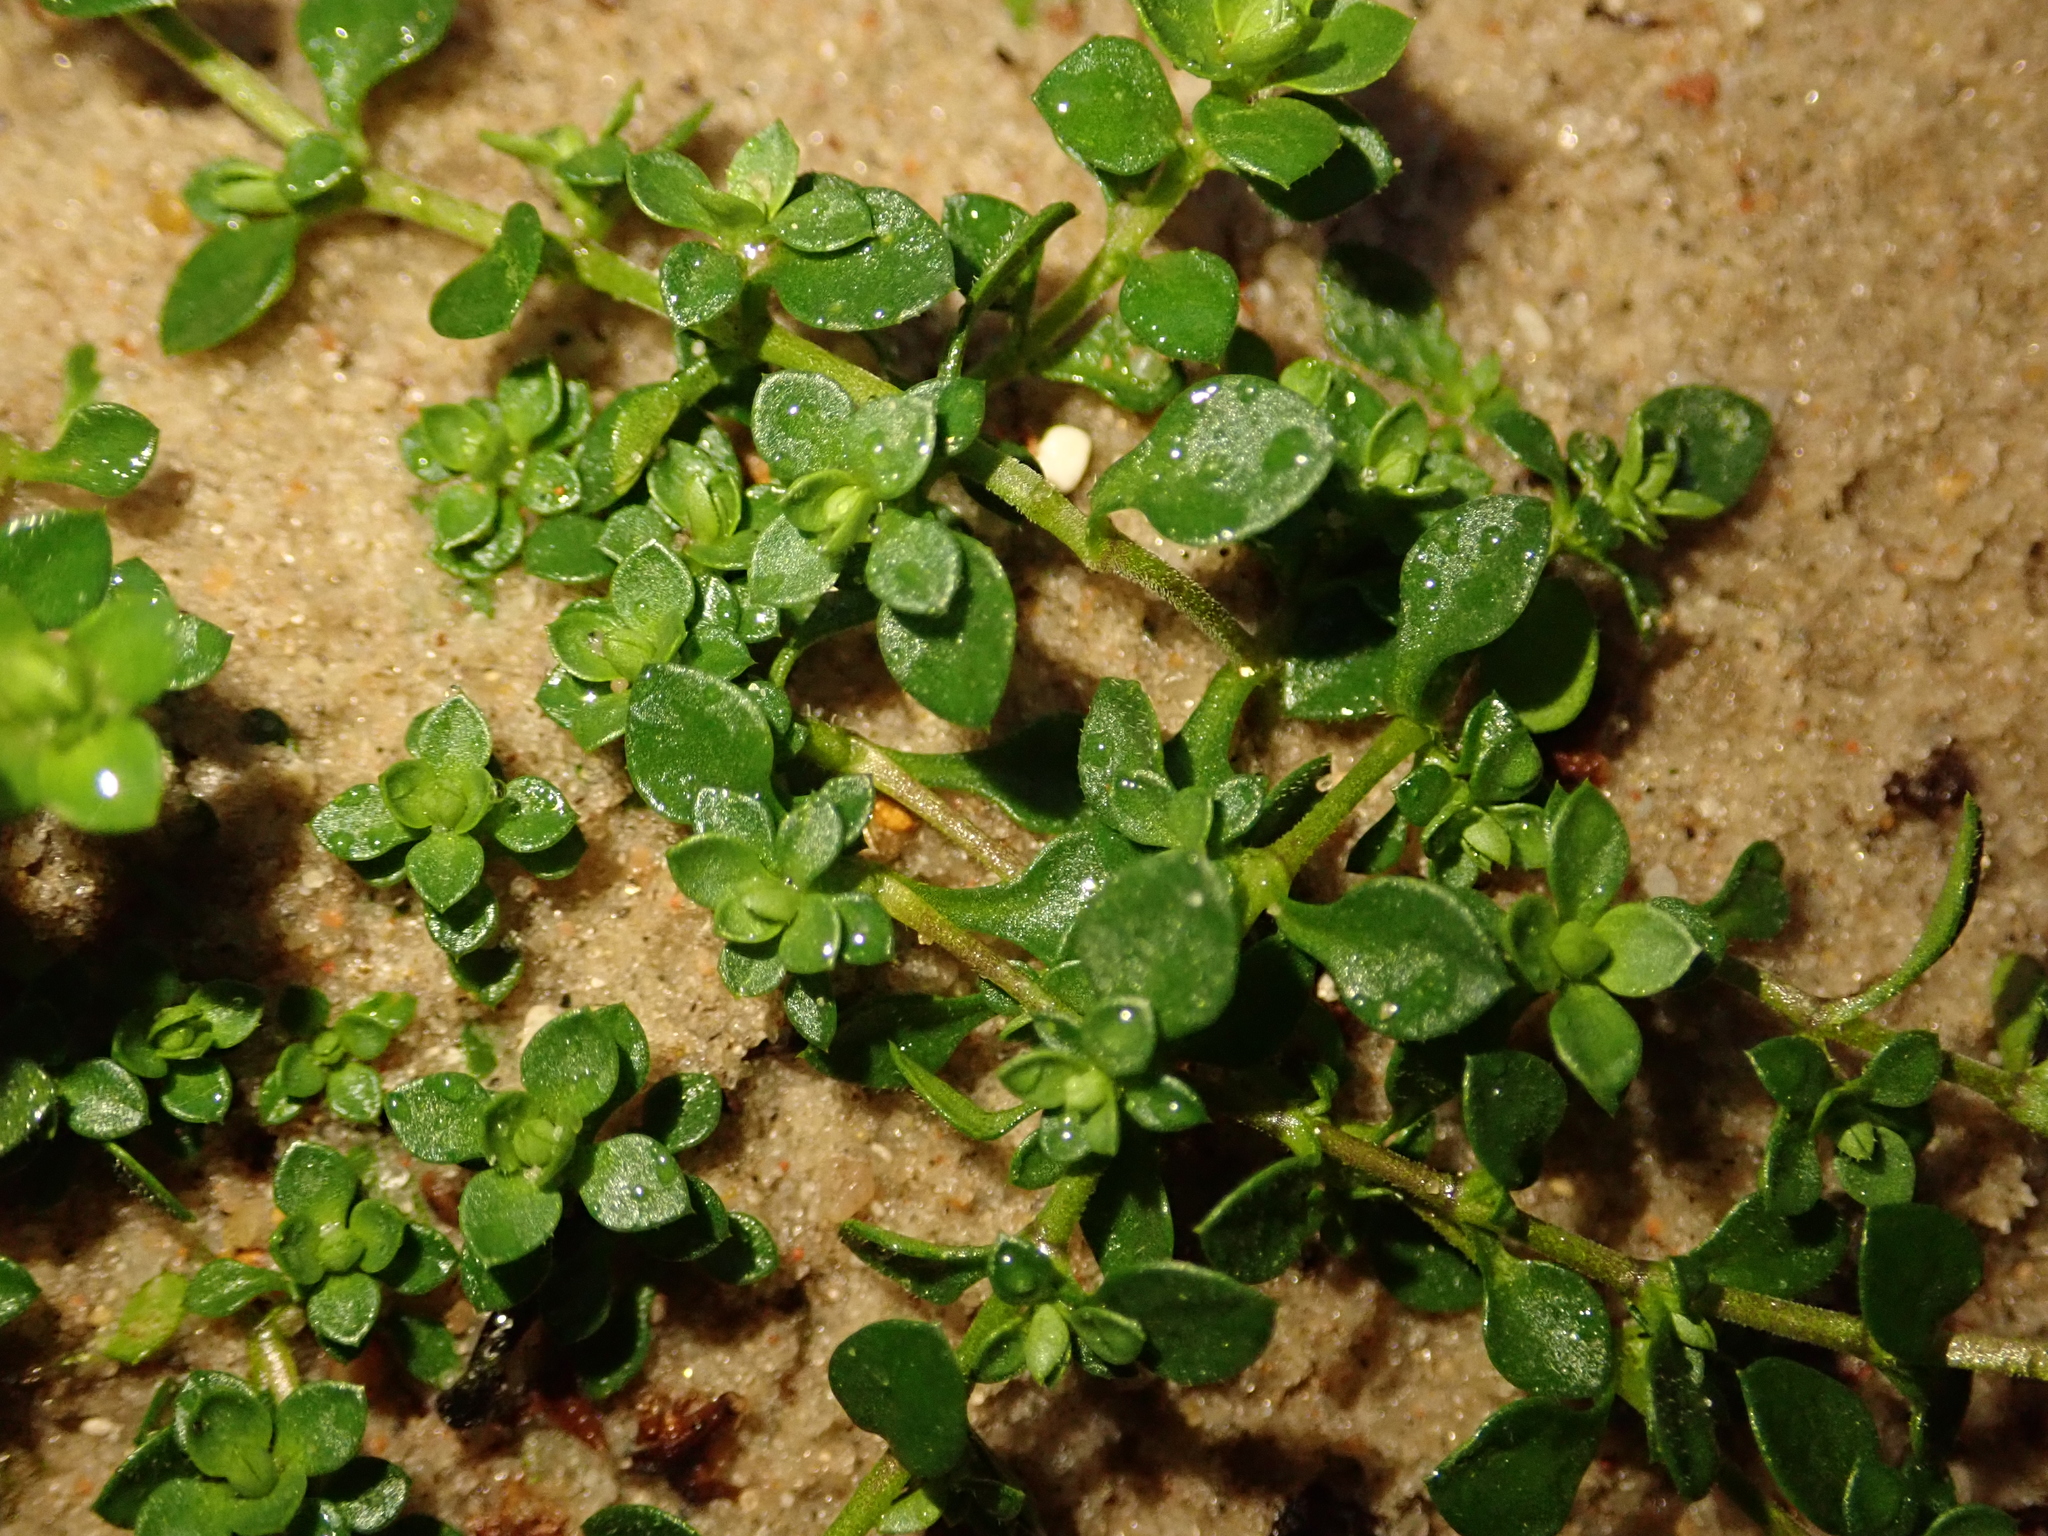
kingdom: Plantae
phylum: Tracheophyta
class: Magnoliopsida
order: Caryophyllales
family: Caryophyllaceae
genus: Herniaria
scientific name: Herniaria glabra
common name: Smooth rupturewort
